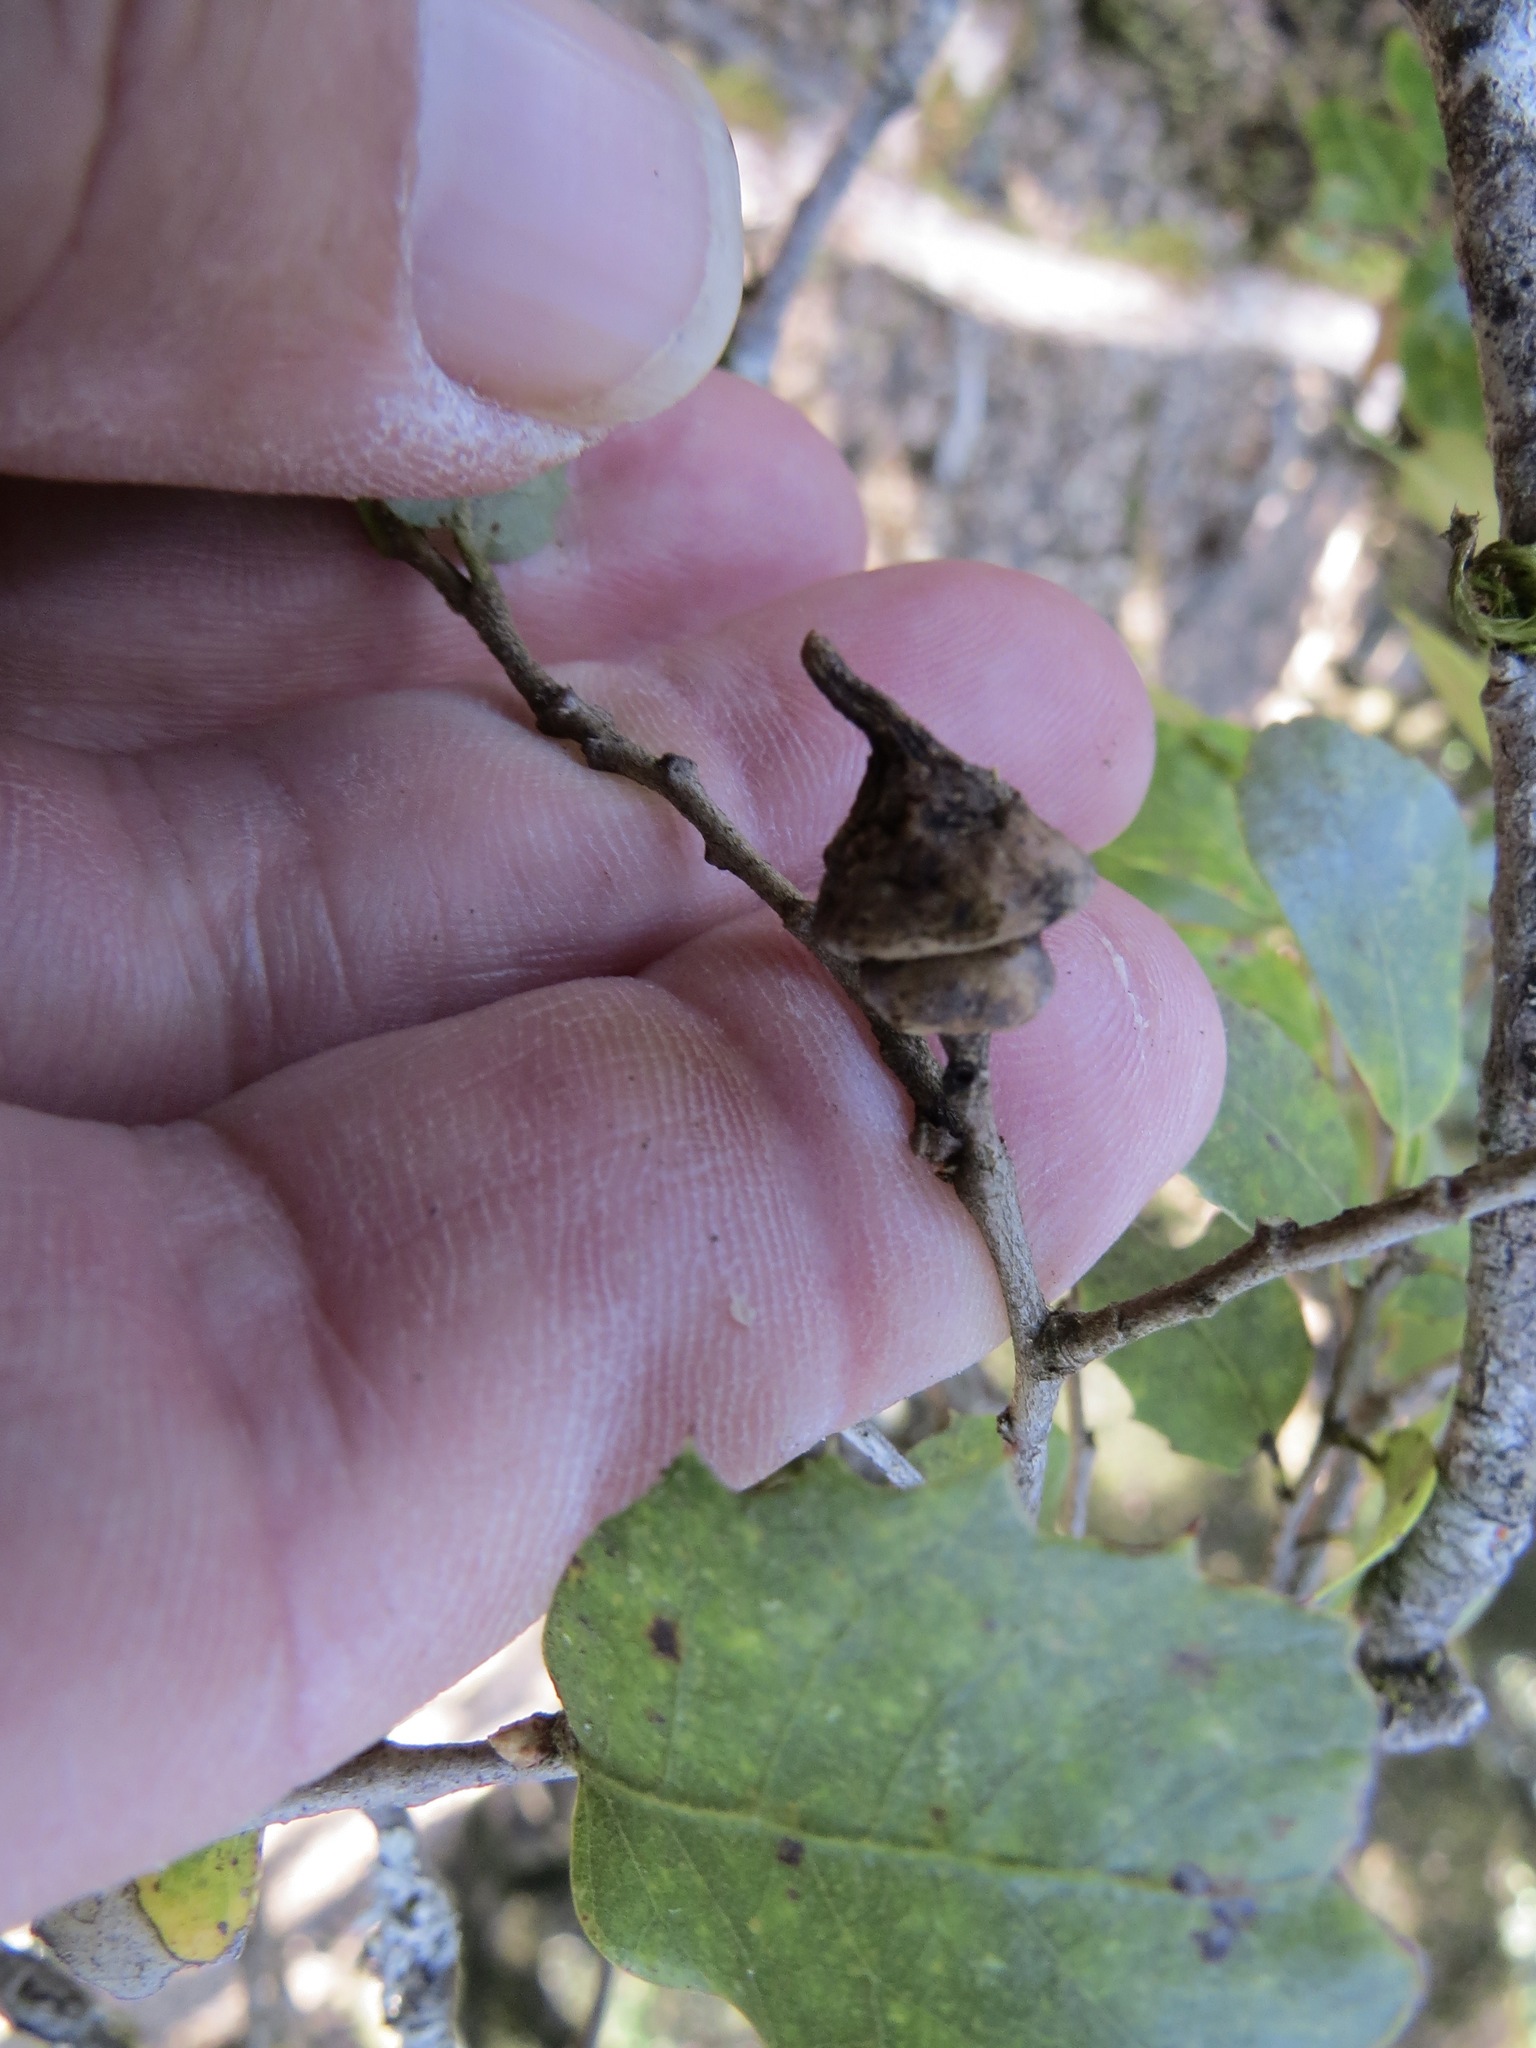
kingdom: Animalia
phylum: Arthropoda
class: Insecta
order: Hymenoptera
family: Cynipidae
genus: Heteroecus
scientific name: Heteroecus
